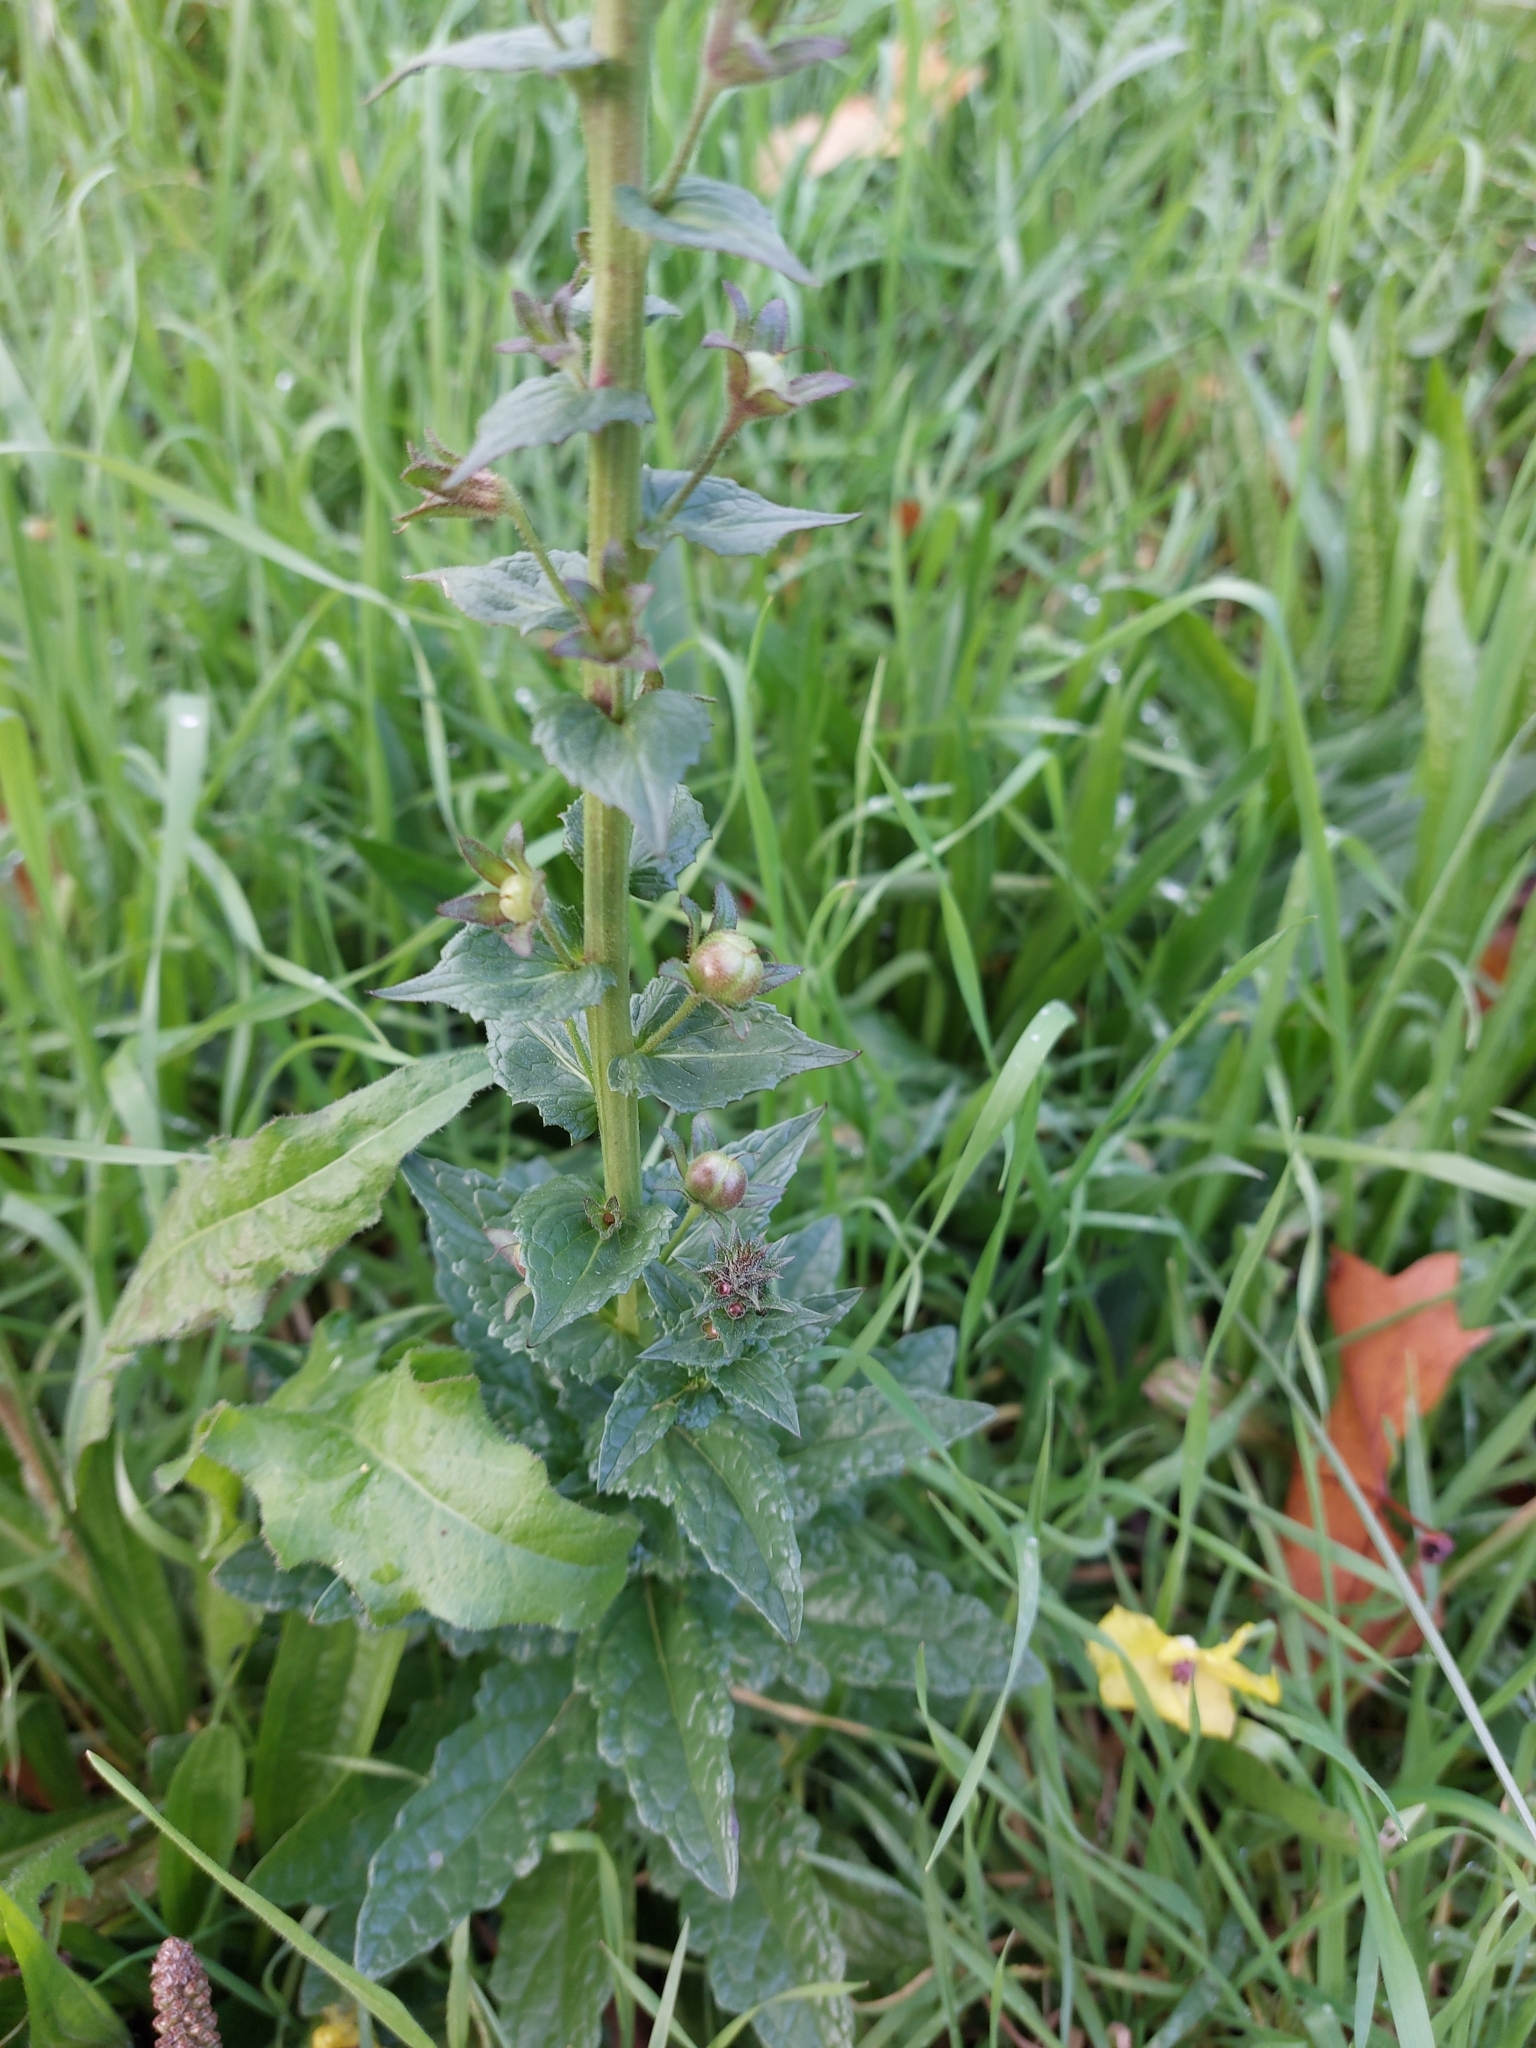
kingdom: Plantae
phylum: Tracheophyta
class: Magnoliopsida
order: Lamiales
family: Scrophulariaceae
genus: Verbascum
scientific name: Verbascum blattaria
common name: Moth mullein
